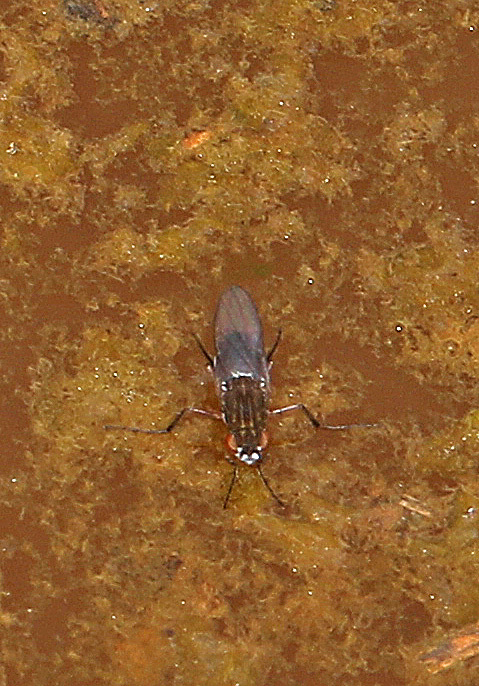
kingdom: Animalia
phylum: Arthropoda
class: Insecta
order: Diptera
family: Ephydridae
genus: Brachydeutera
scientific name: Brachydeutera argentata
